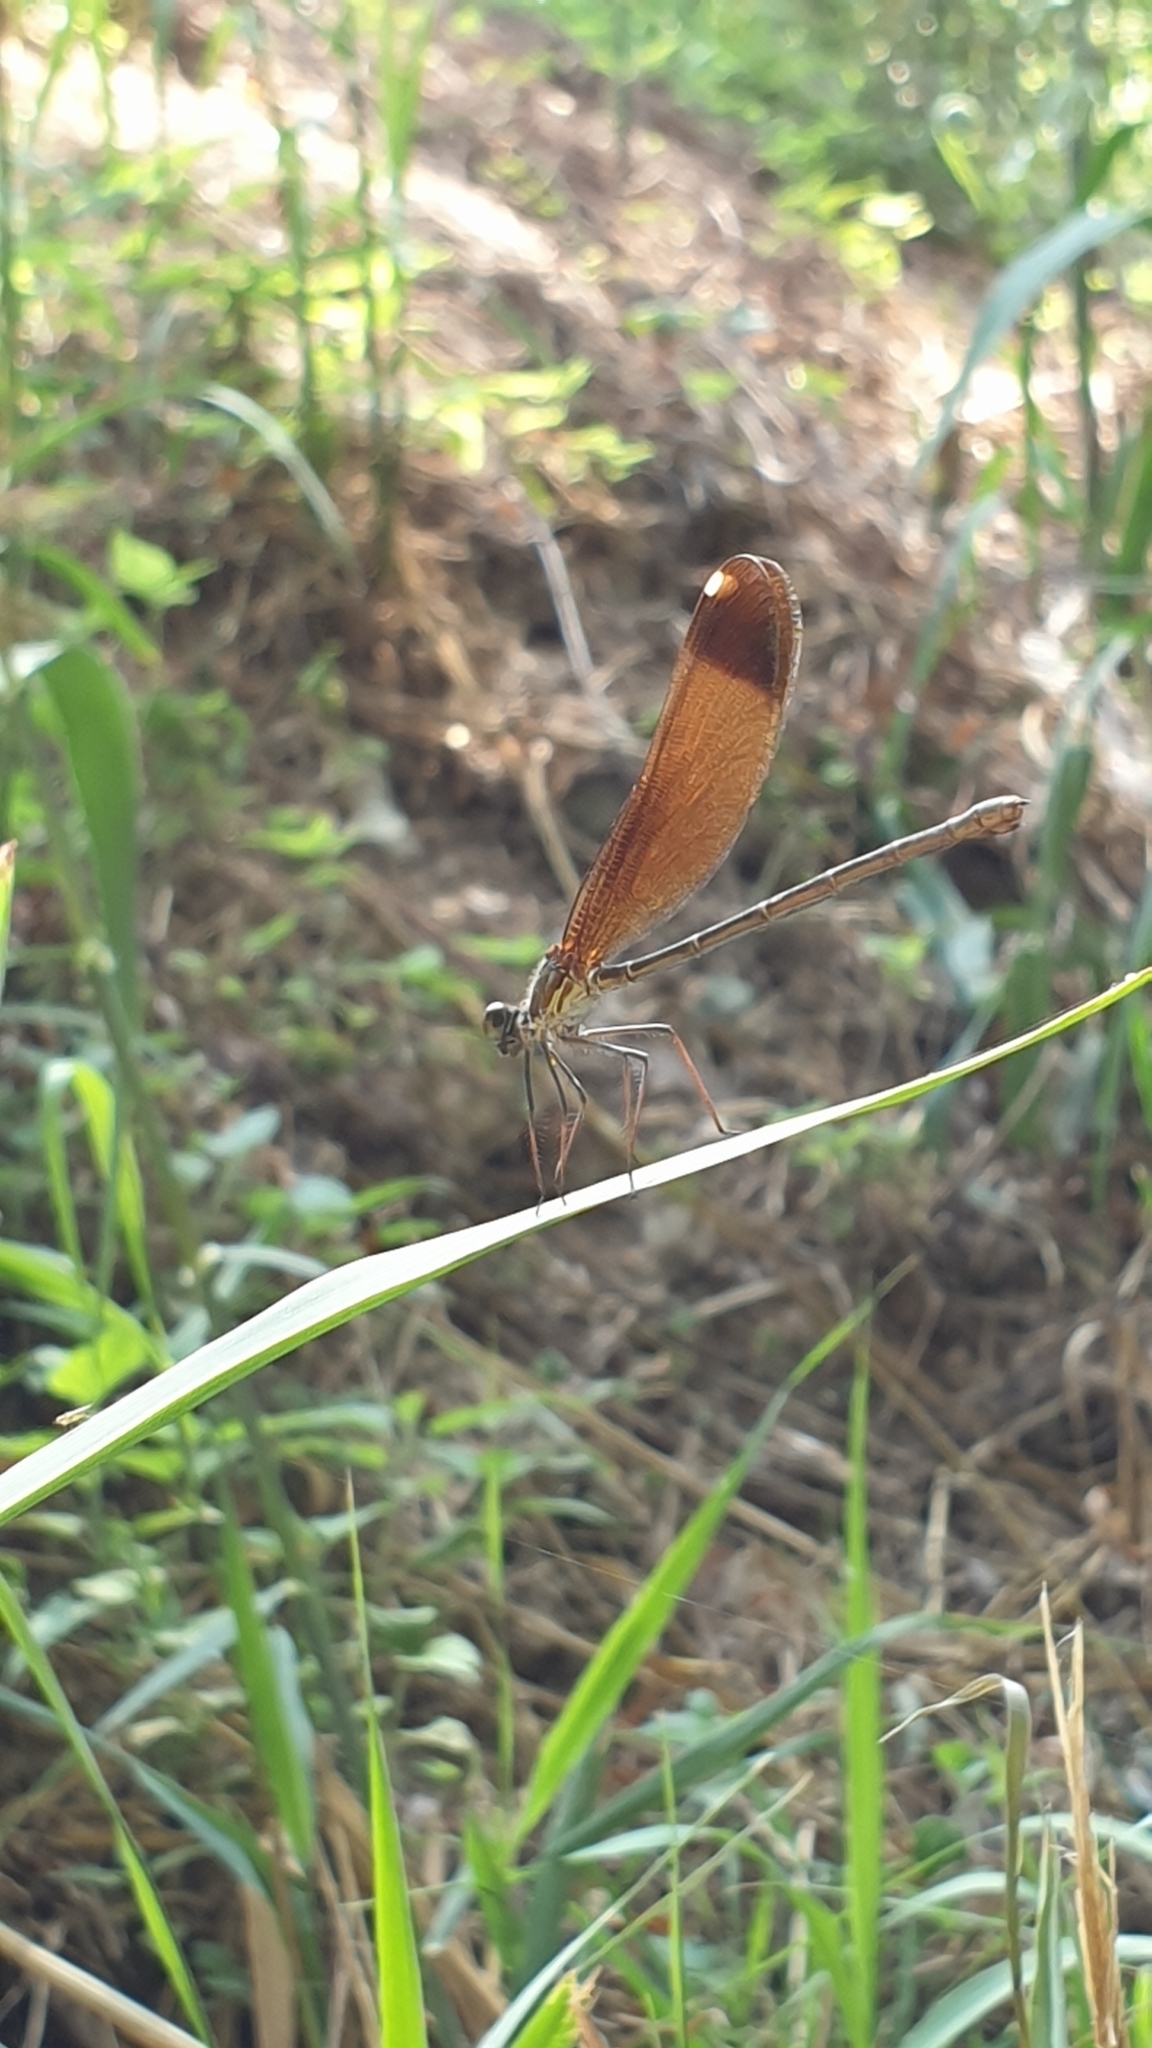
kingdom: Animalia
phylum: Arthropoda
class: Insecta
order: Odonata
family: Calopterygidae
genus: Calopteryx
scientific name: Calopteryx haemorrhoidalis
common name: Copper demoiselle
